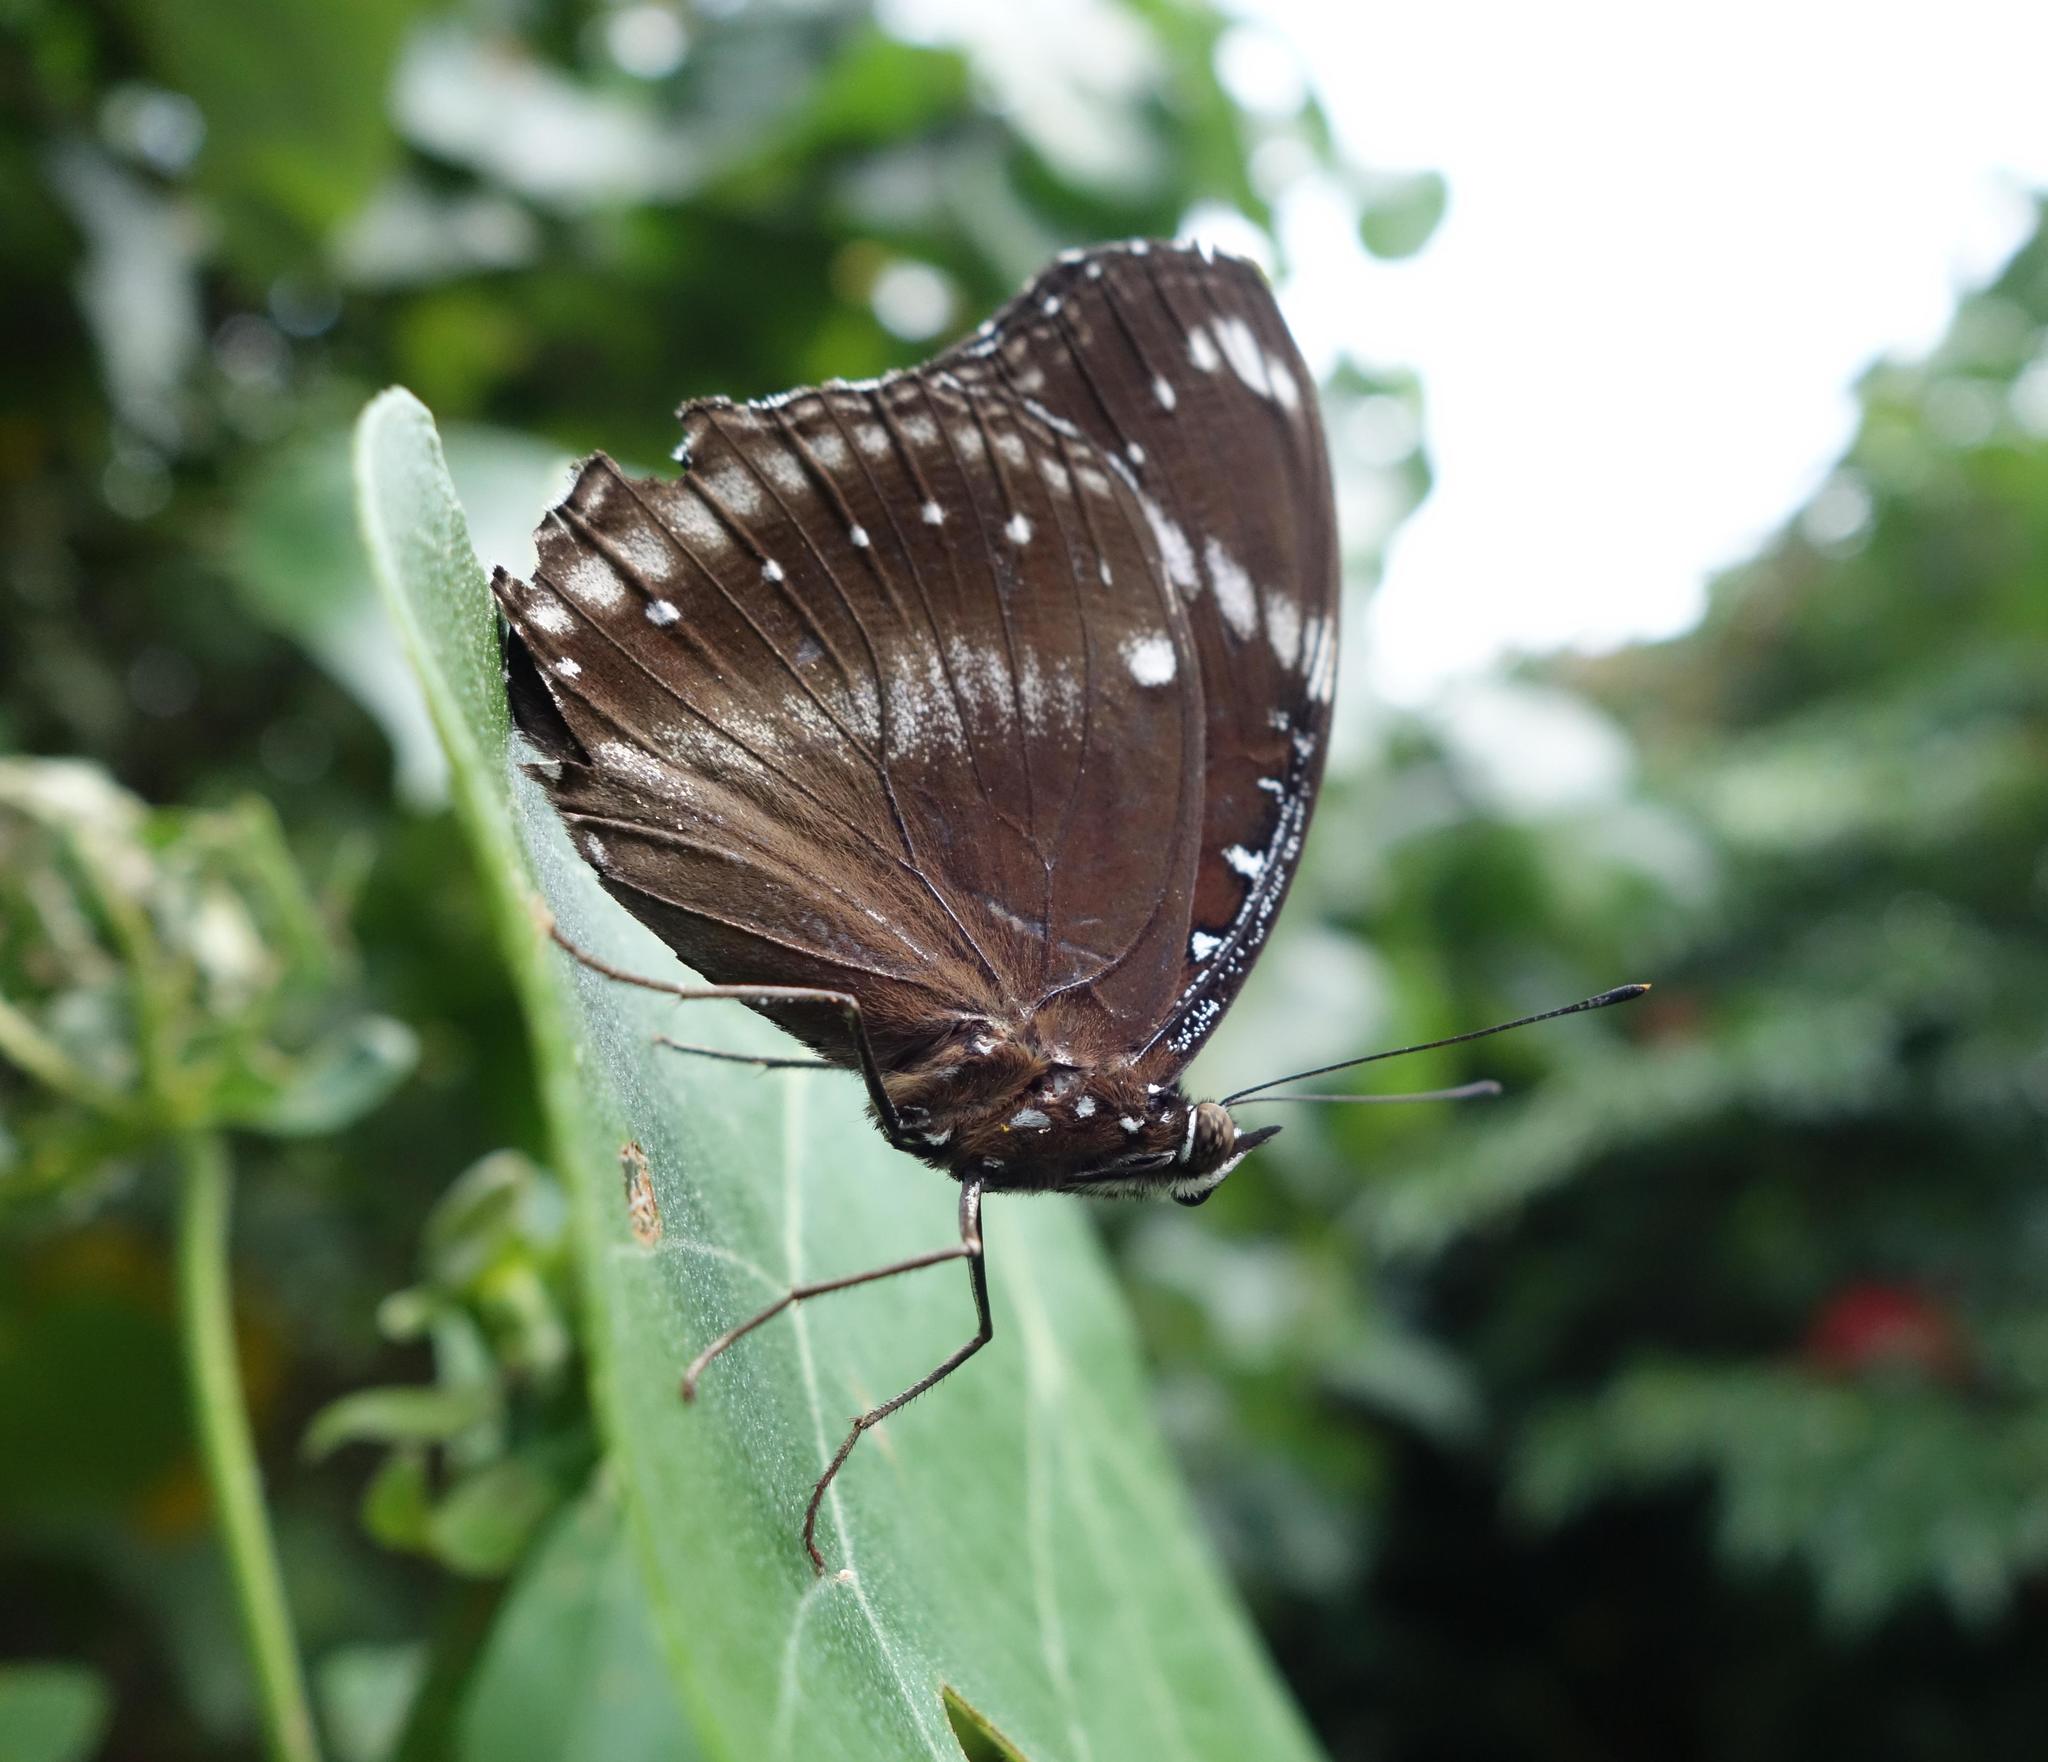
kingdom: Animalia
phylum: Arthropoda
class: Insecta
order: Lepidoptera
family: Nymphalidae
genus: Hypolimnas
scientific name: Hypolimnas bolina
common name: Great eggfly
